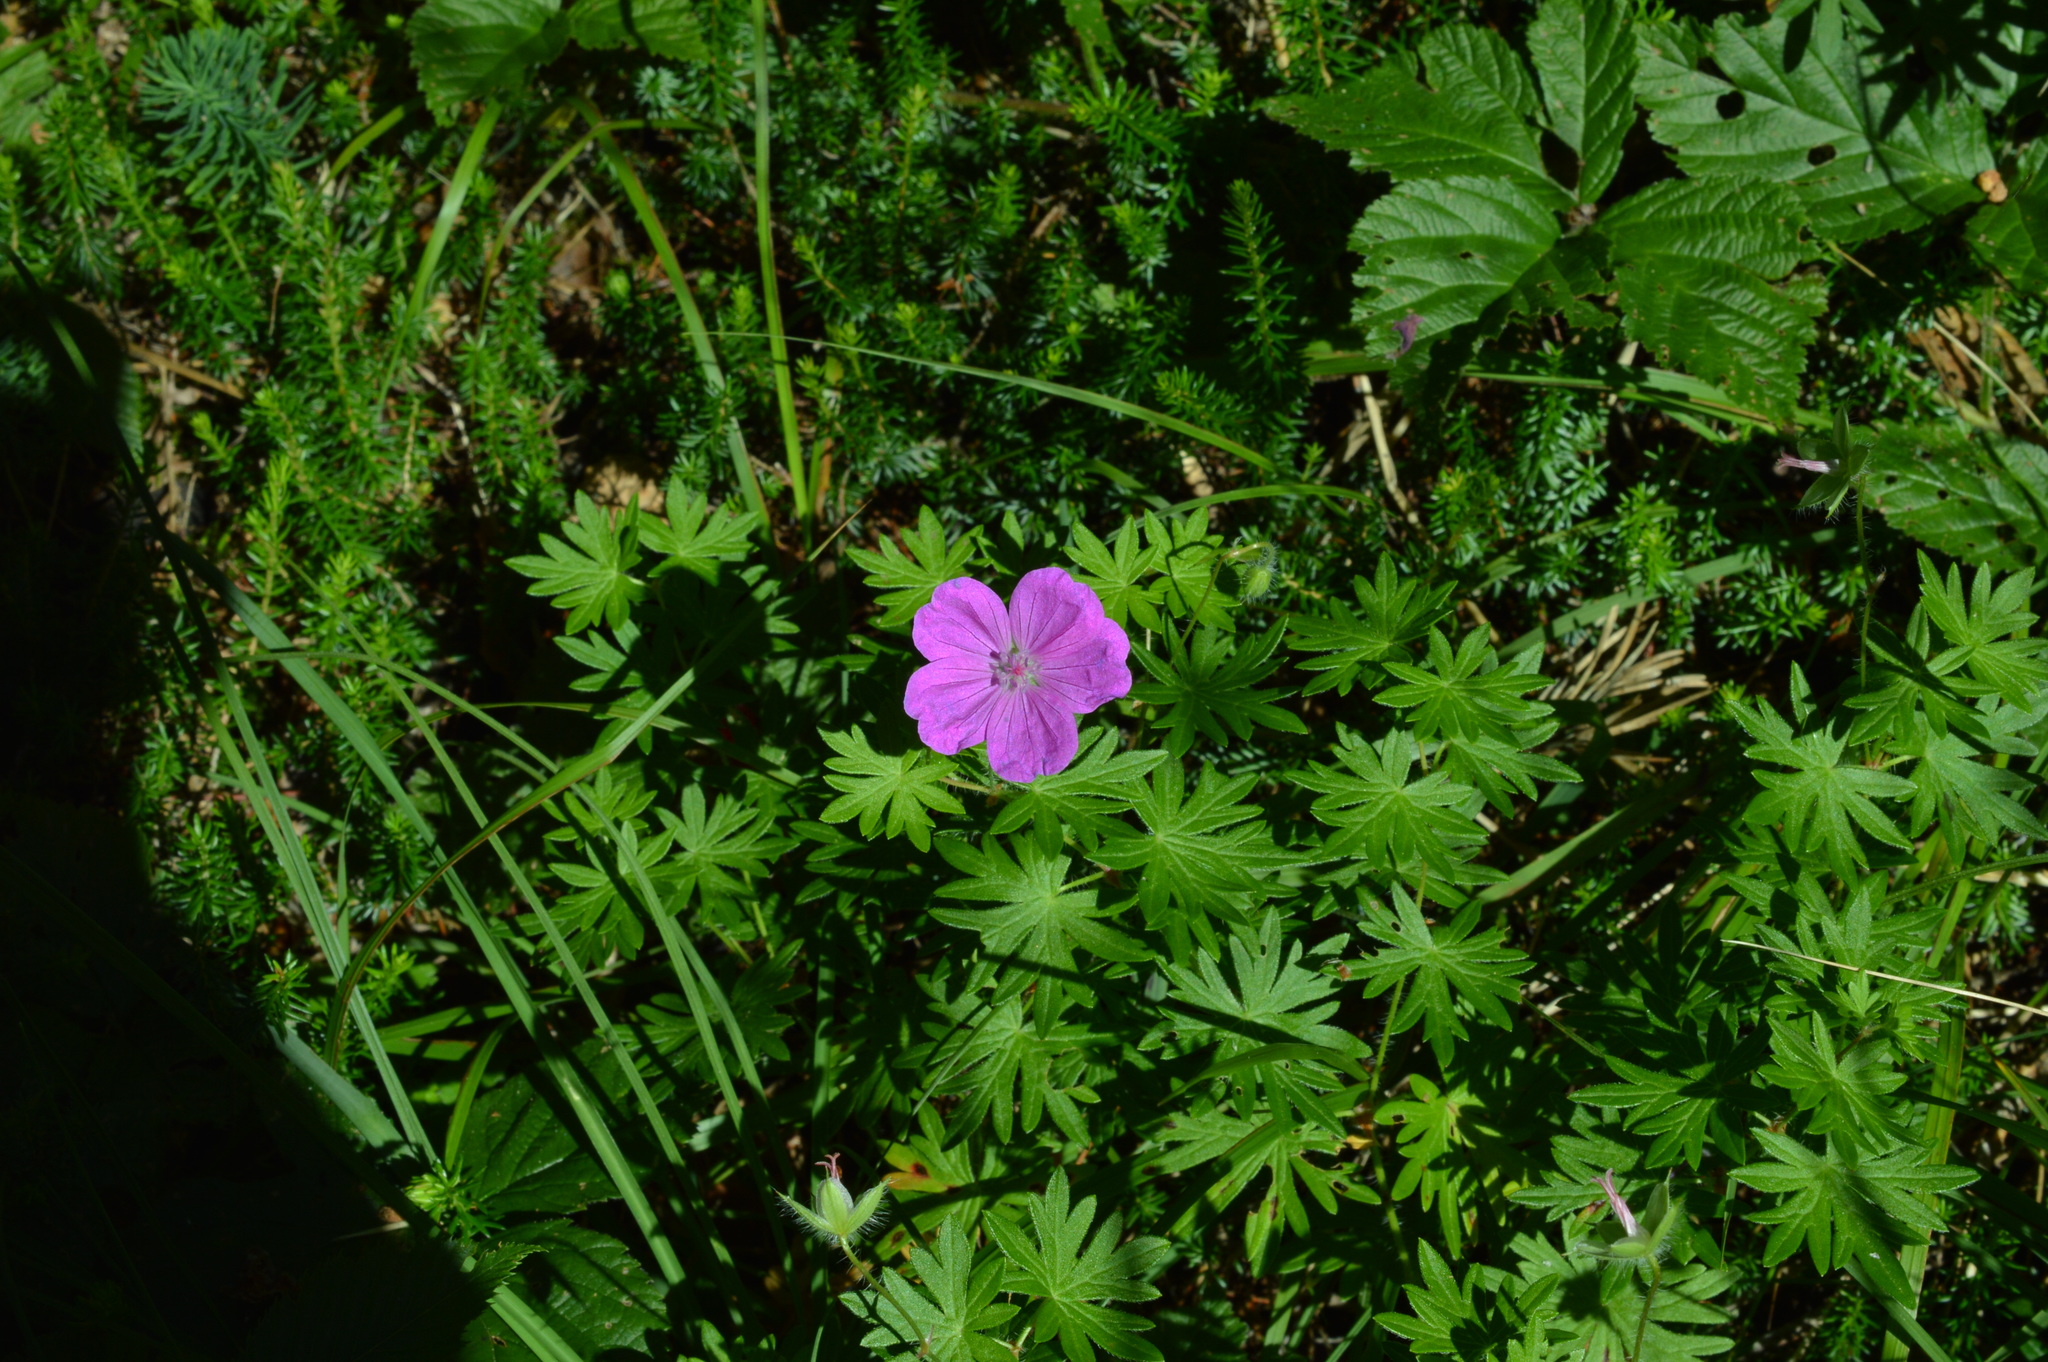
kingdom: Plantae
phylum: Tracheophyta
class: Magnoliopsida
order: Geraniales
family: Geraniaceae
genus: Geranium
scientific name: Geranium sanguineum
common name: Bloody crane's-bill
